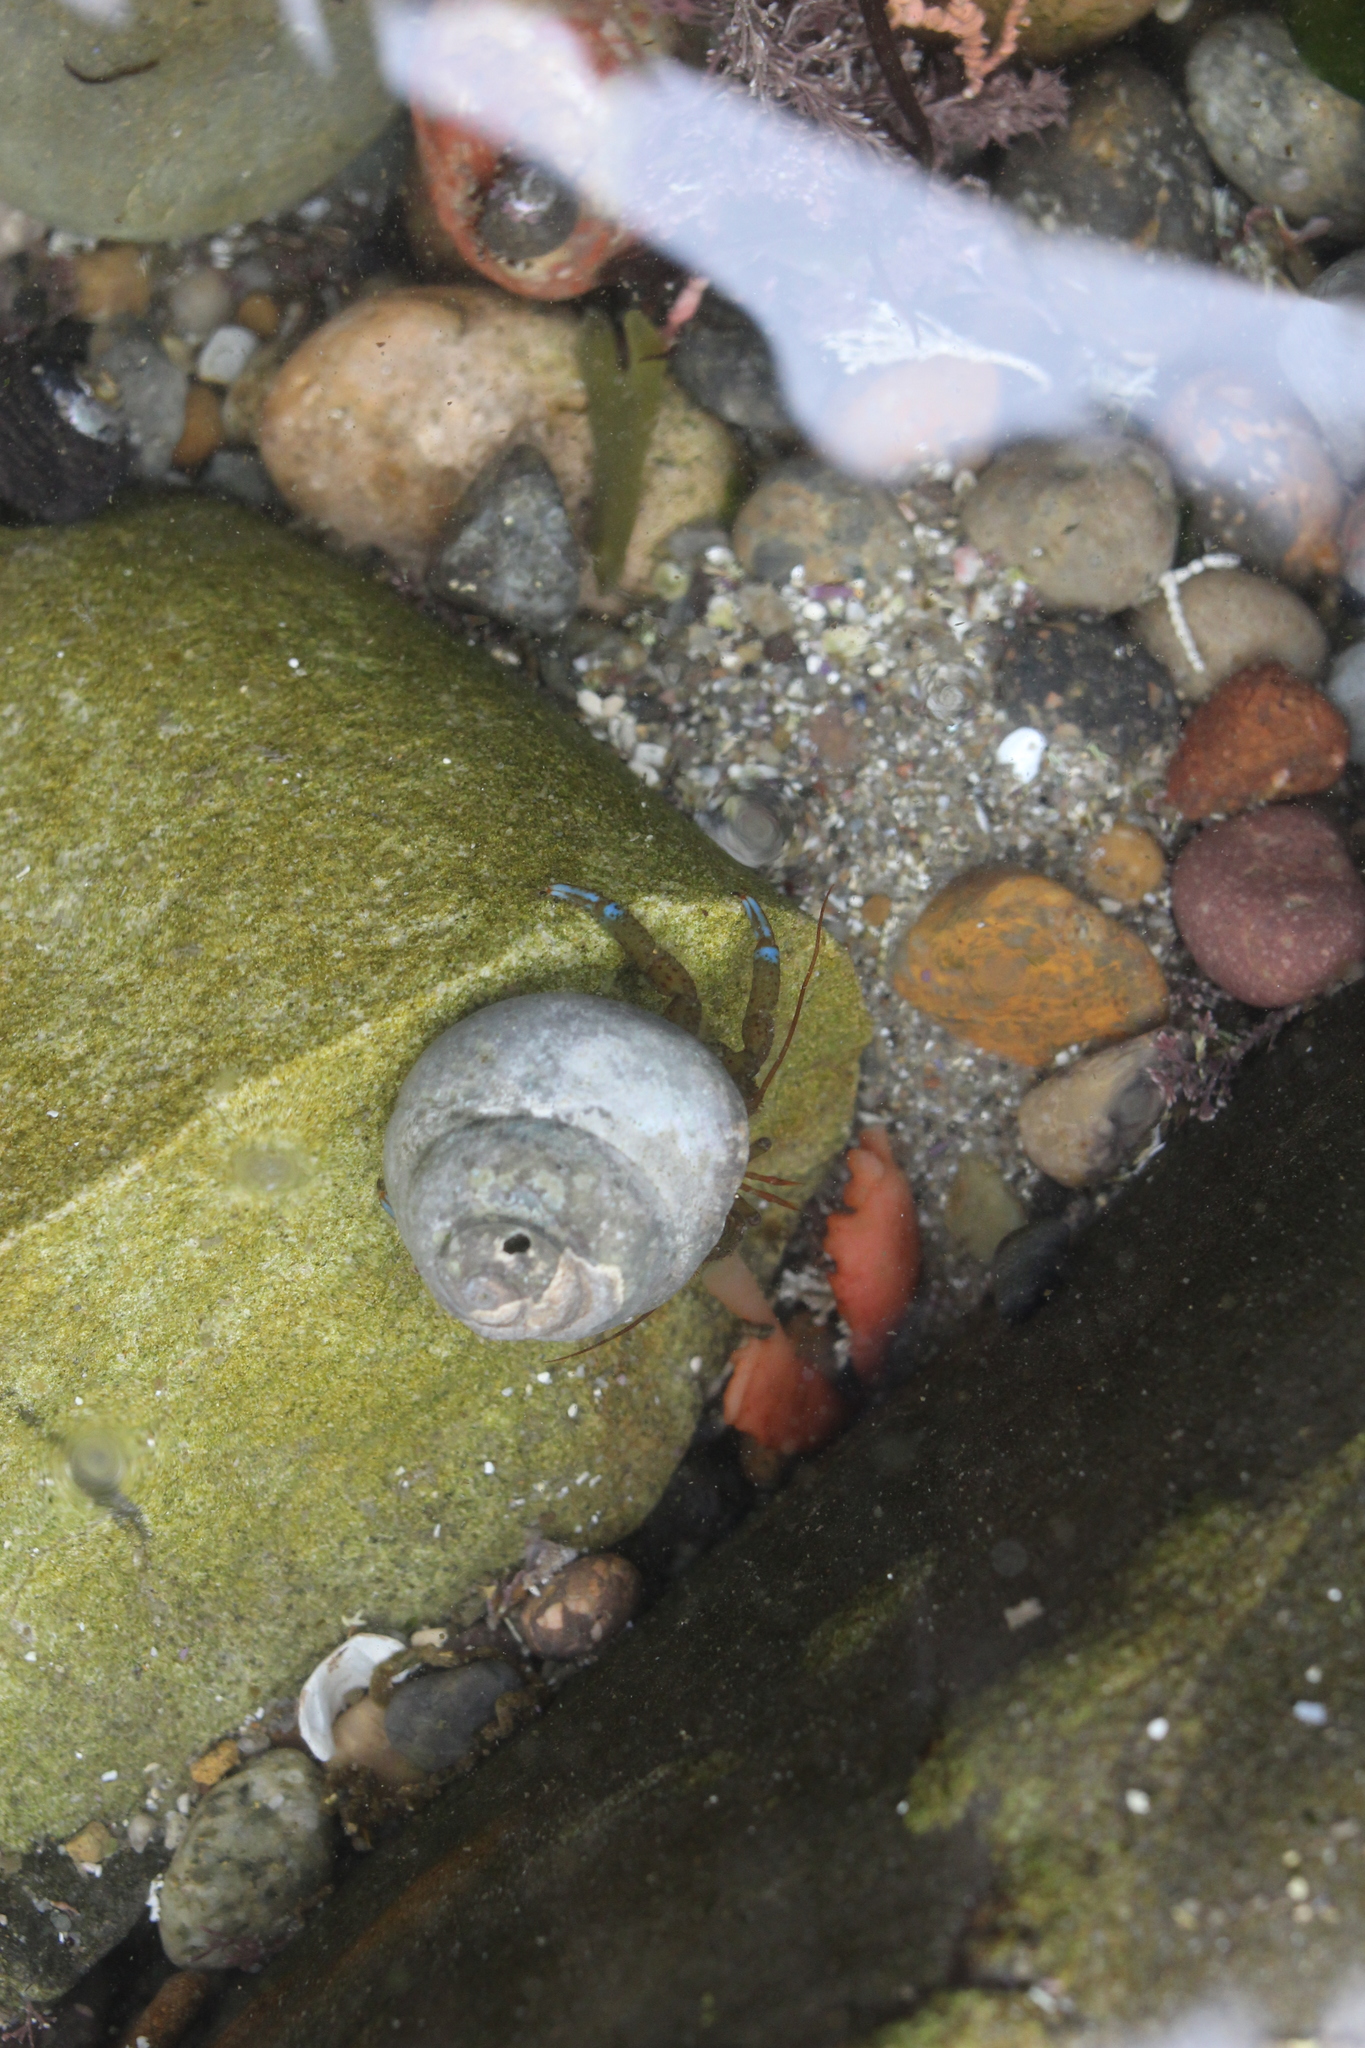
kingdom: Animalia
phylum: Arthropoda
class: Malacostraca
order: Decapoda
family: Paguridae
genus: Pagurus
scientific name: Pagurus samuelis
